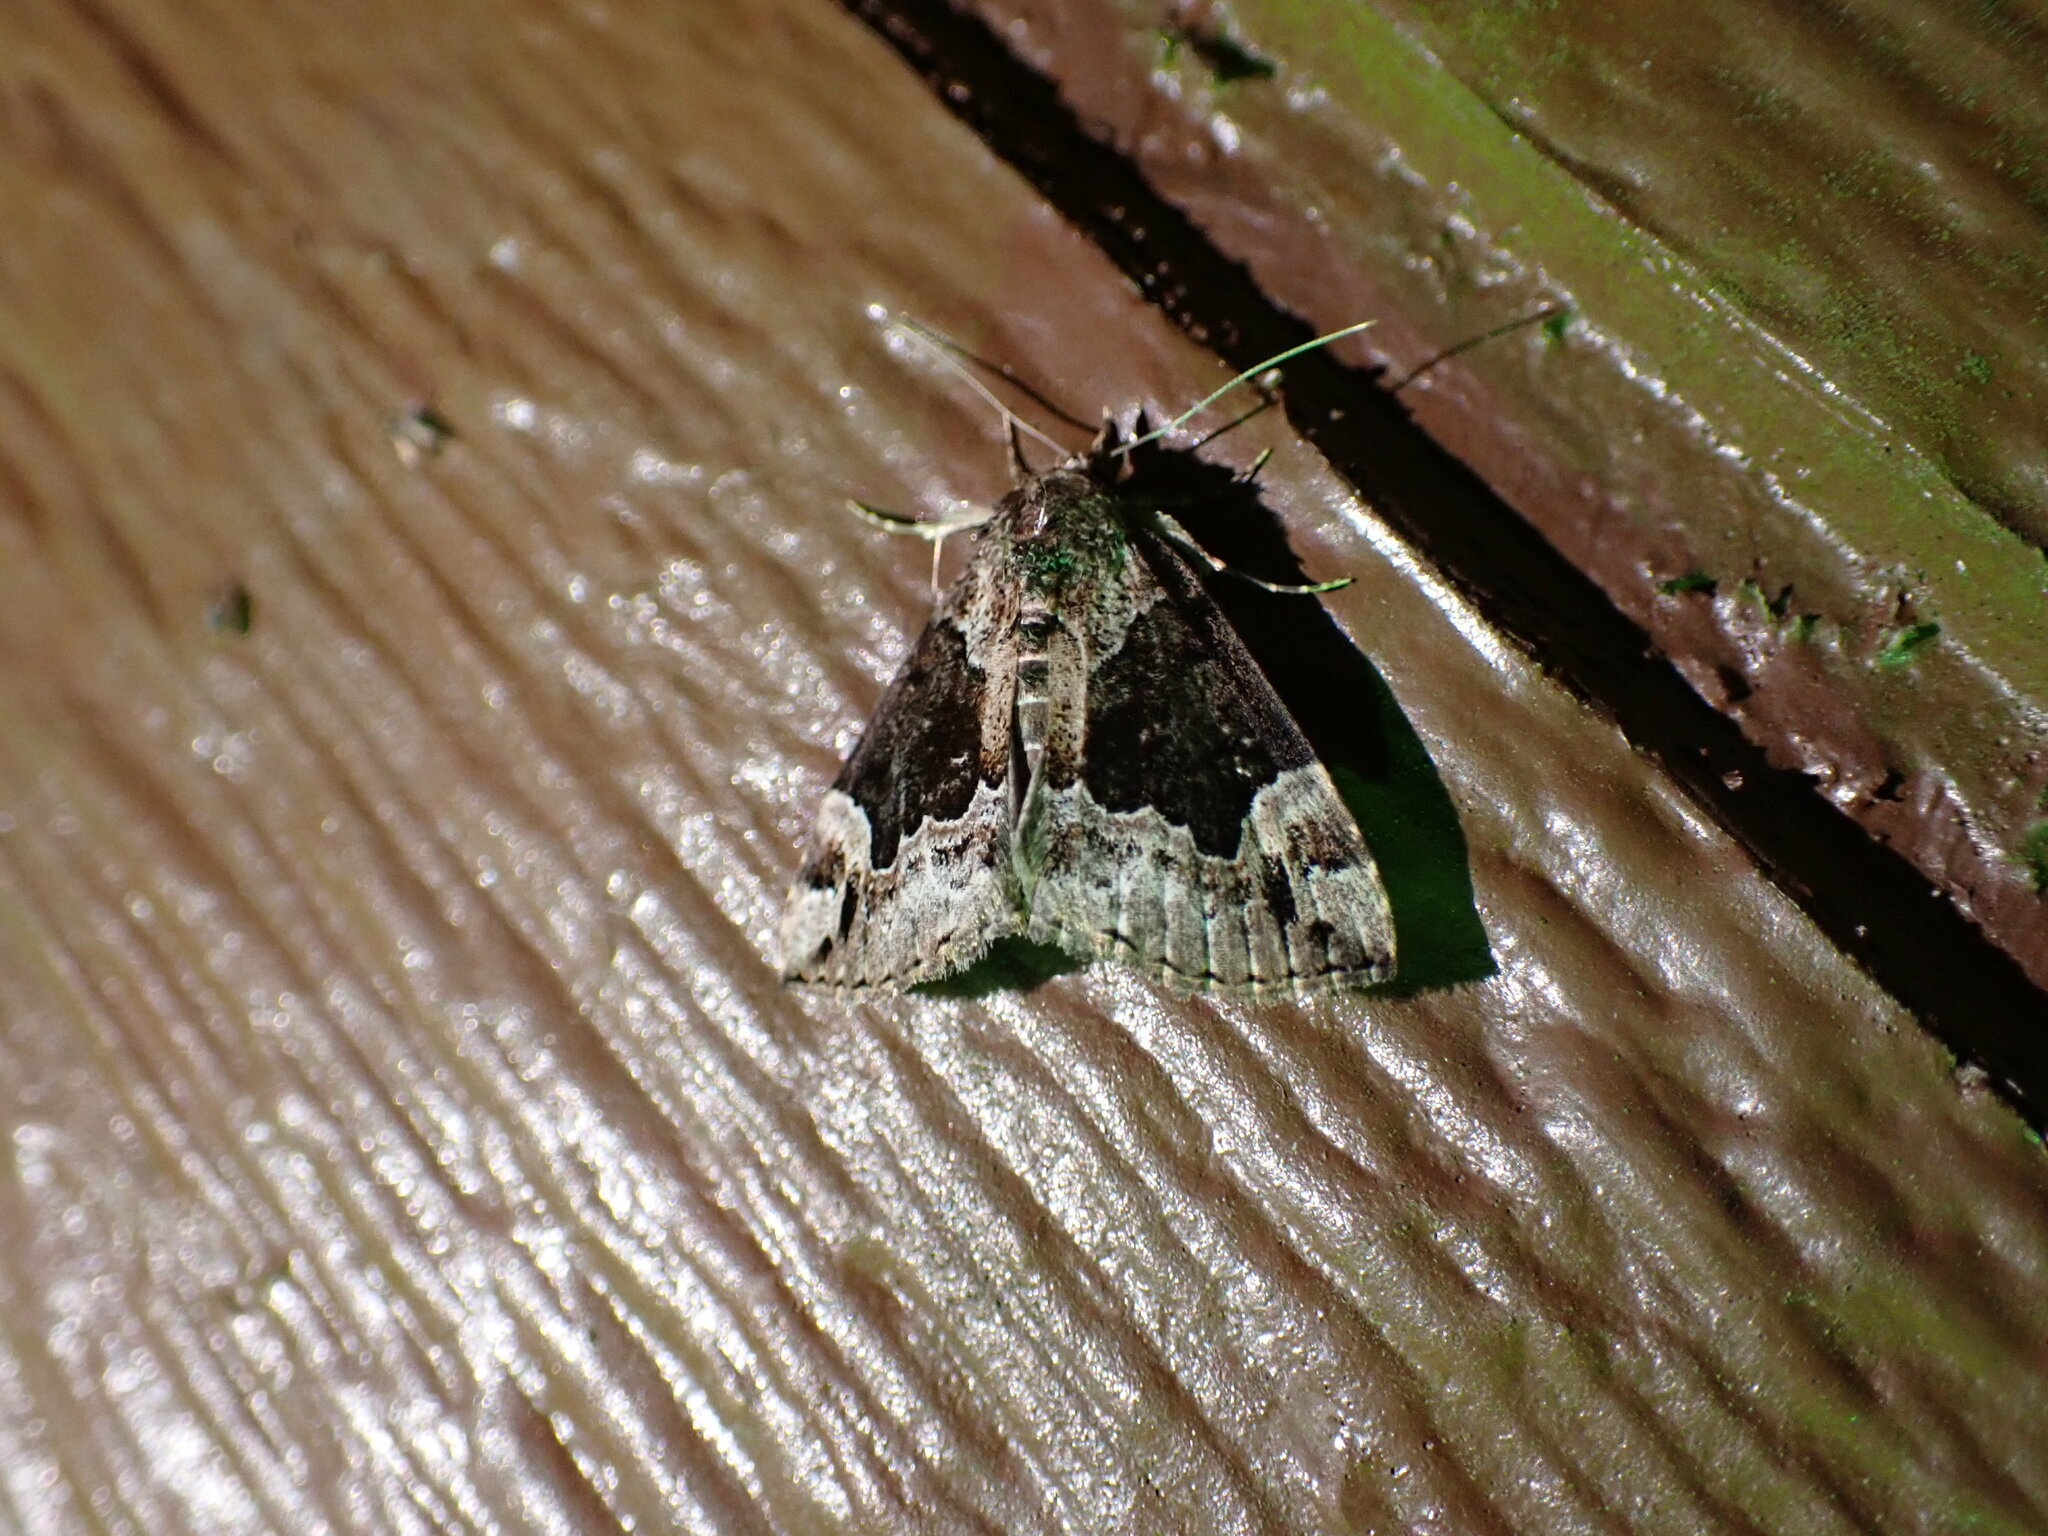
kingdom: Animalia
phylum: Arthropoda
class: Insecta
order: Lepidoptera
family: Erebidae
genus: Hypena
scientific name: Hypena palparia
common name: Mottled bomolocha moth
